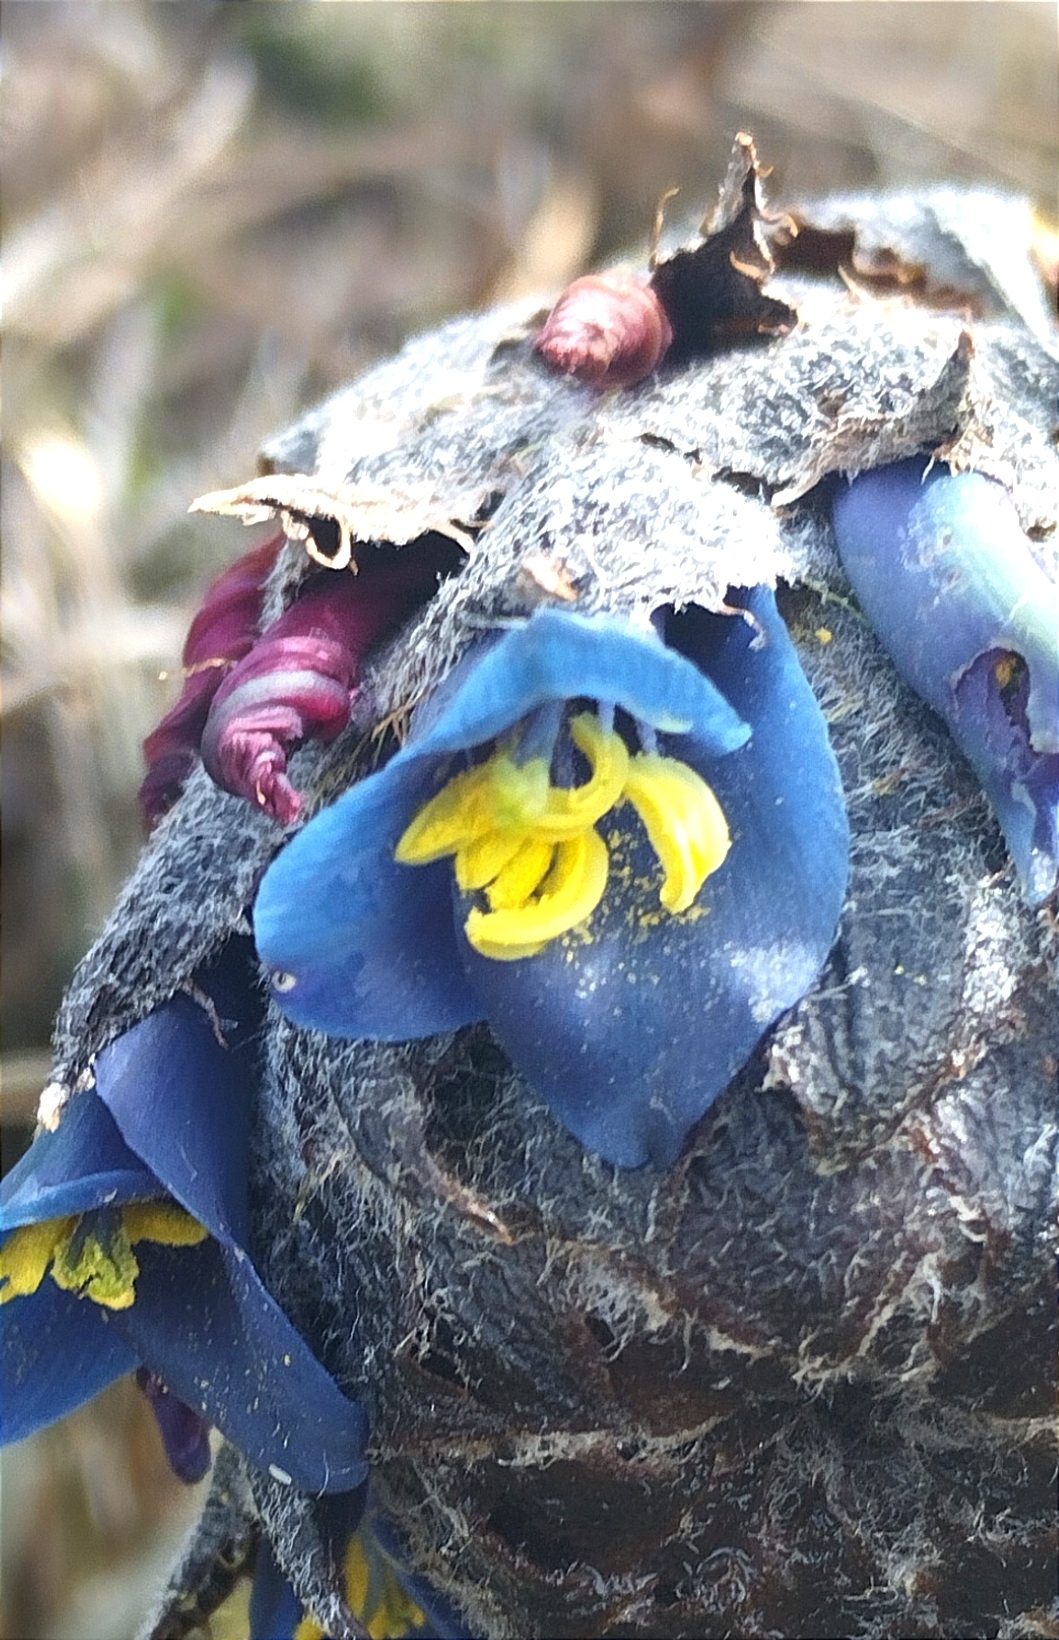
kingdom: Plantae
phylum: Tracheophyta
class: Liliopsida
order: Poales
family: Bromeliaceae
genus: Puya
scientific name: Puya lineata
